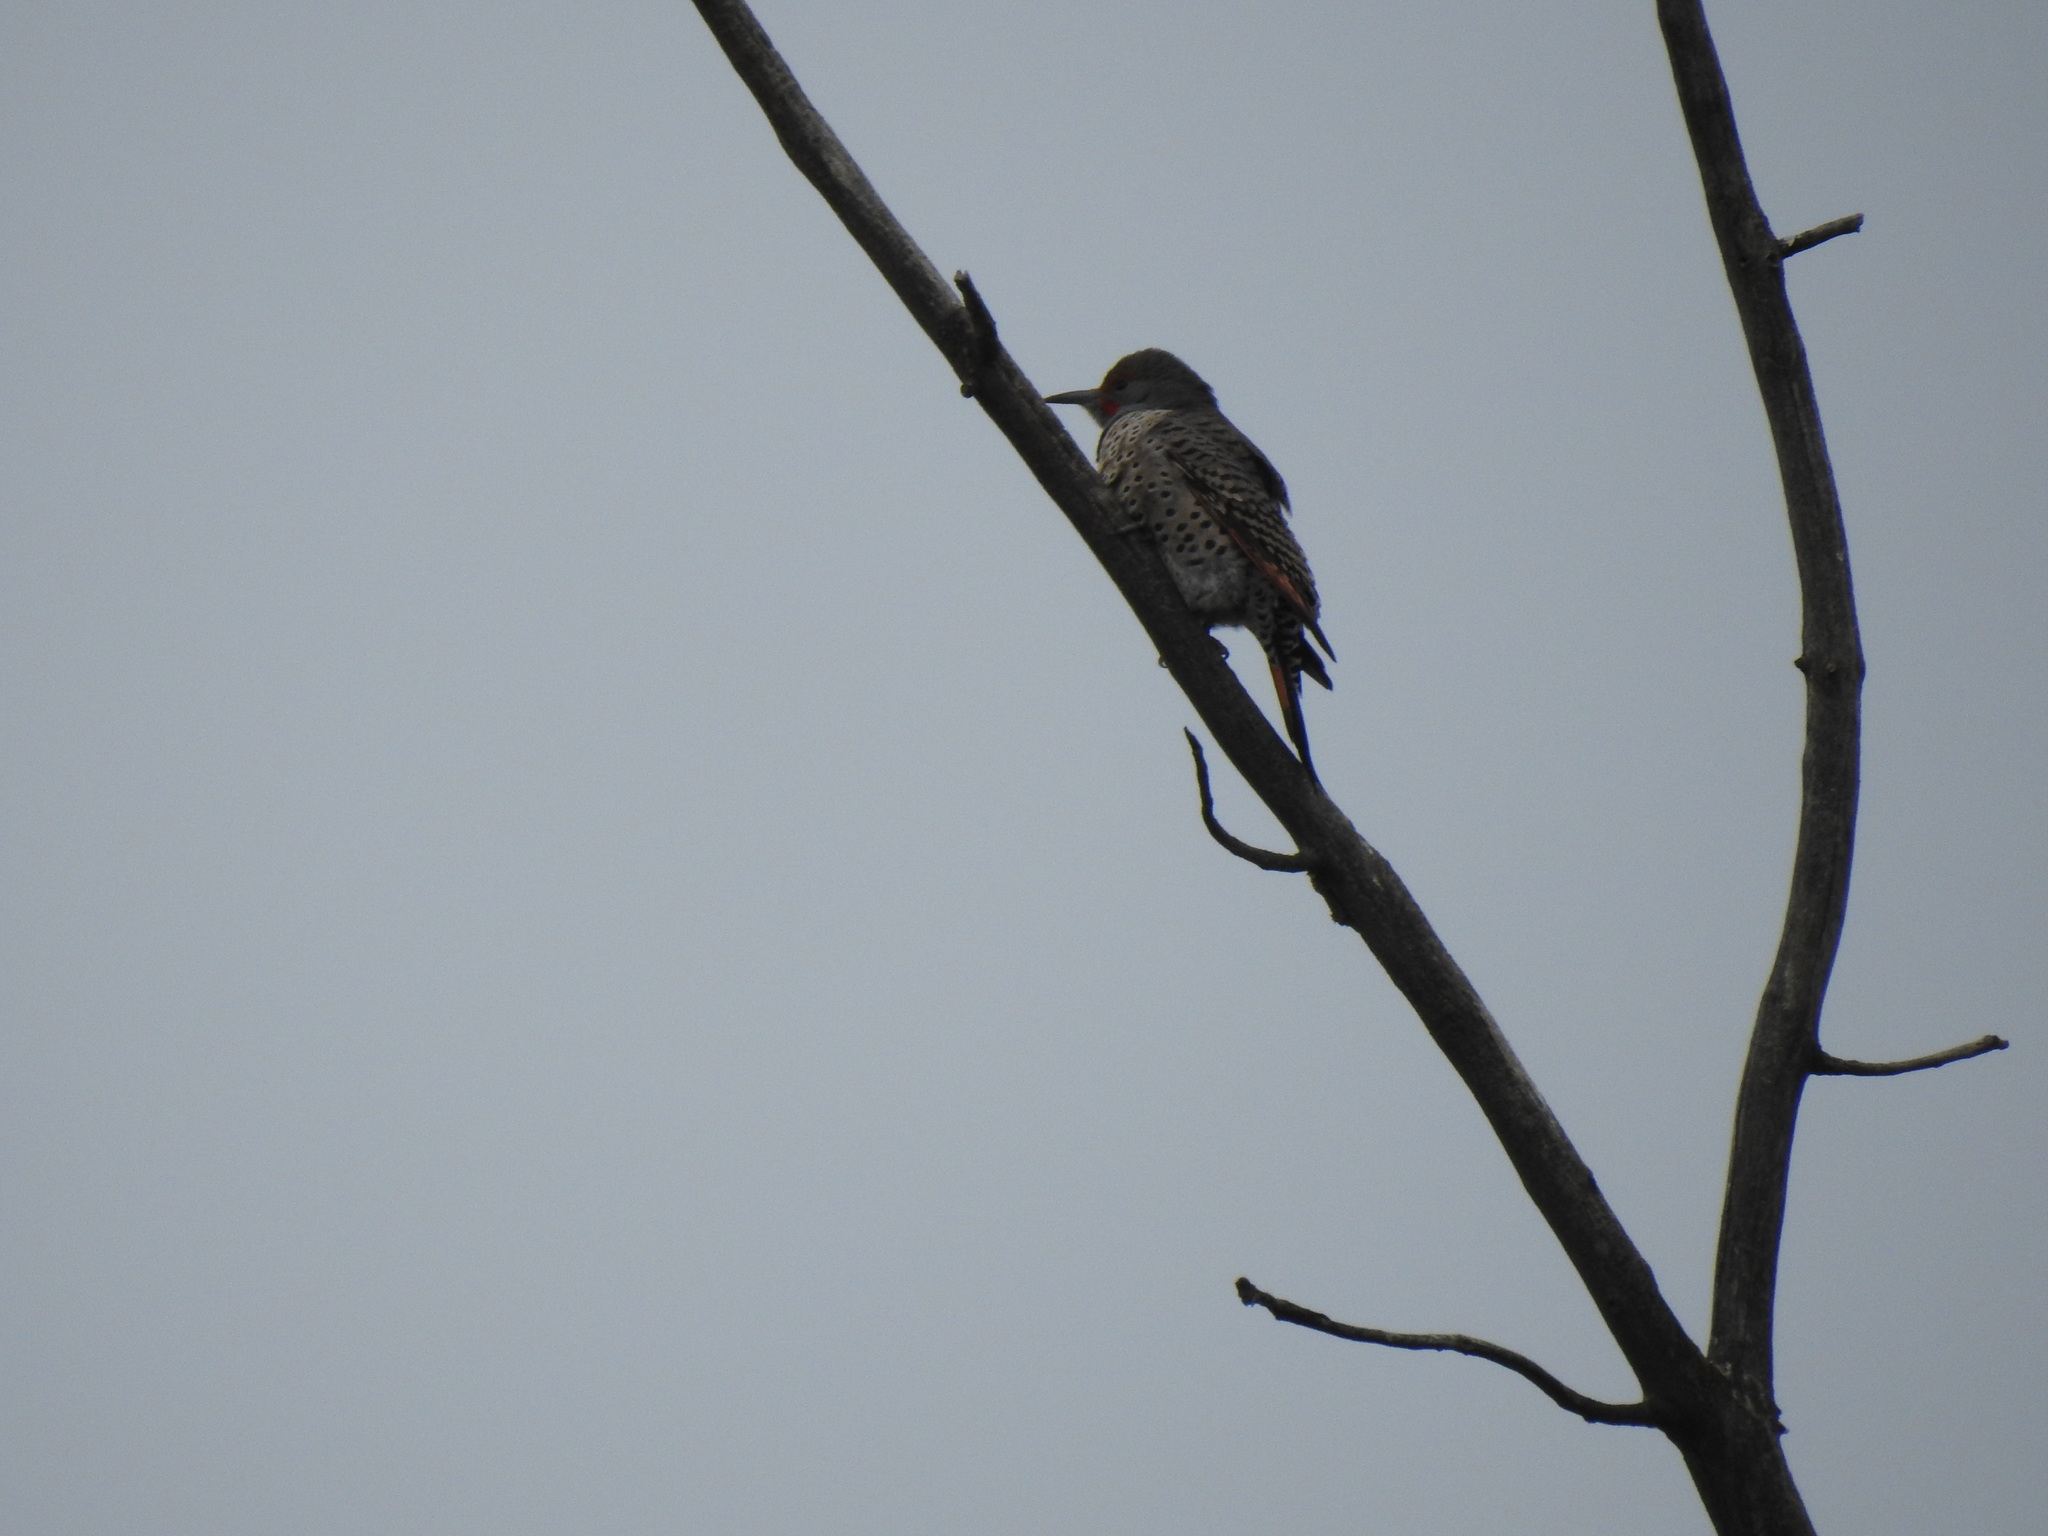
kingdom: Animalia
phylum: Chordata
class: Aves
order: Piciformes
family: Picidae
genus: Colaptes
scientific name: Colaptes auratus
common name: Northern flicker
